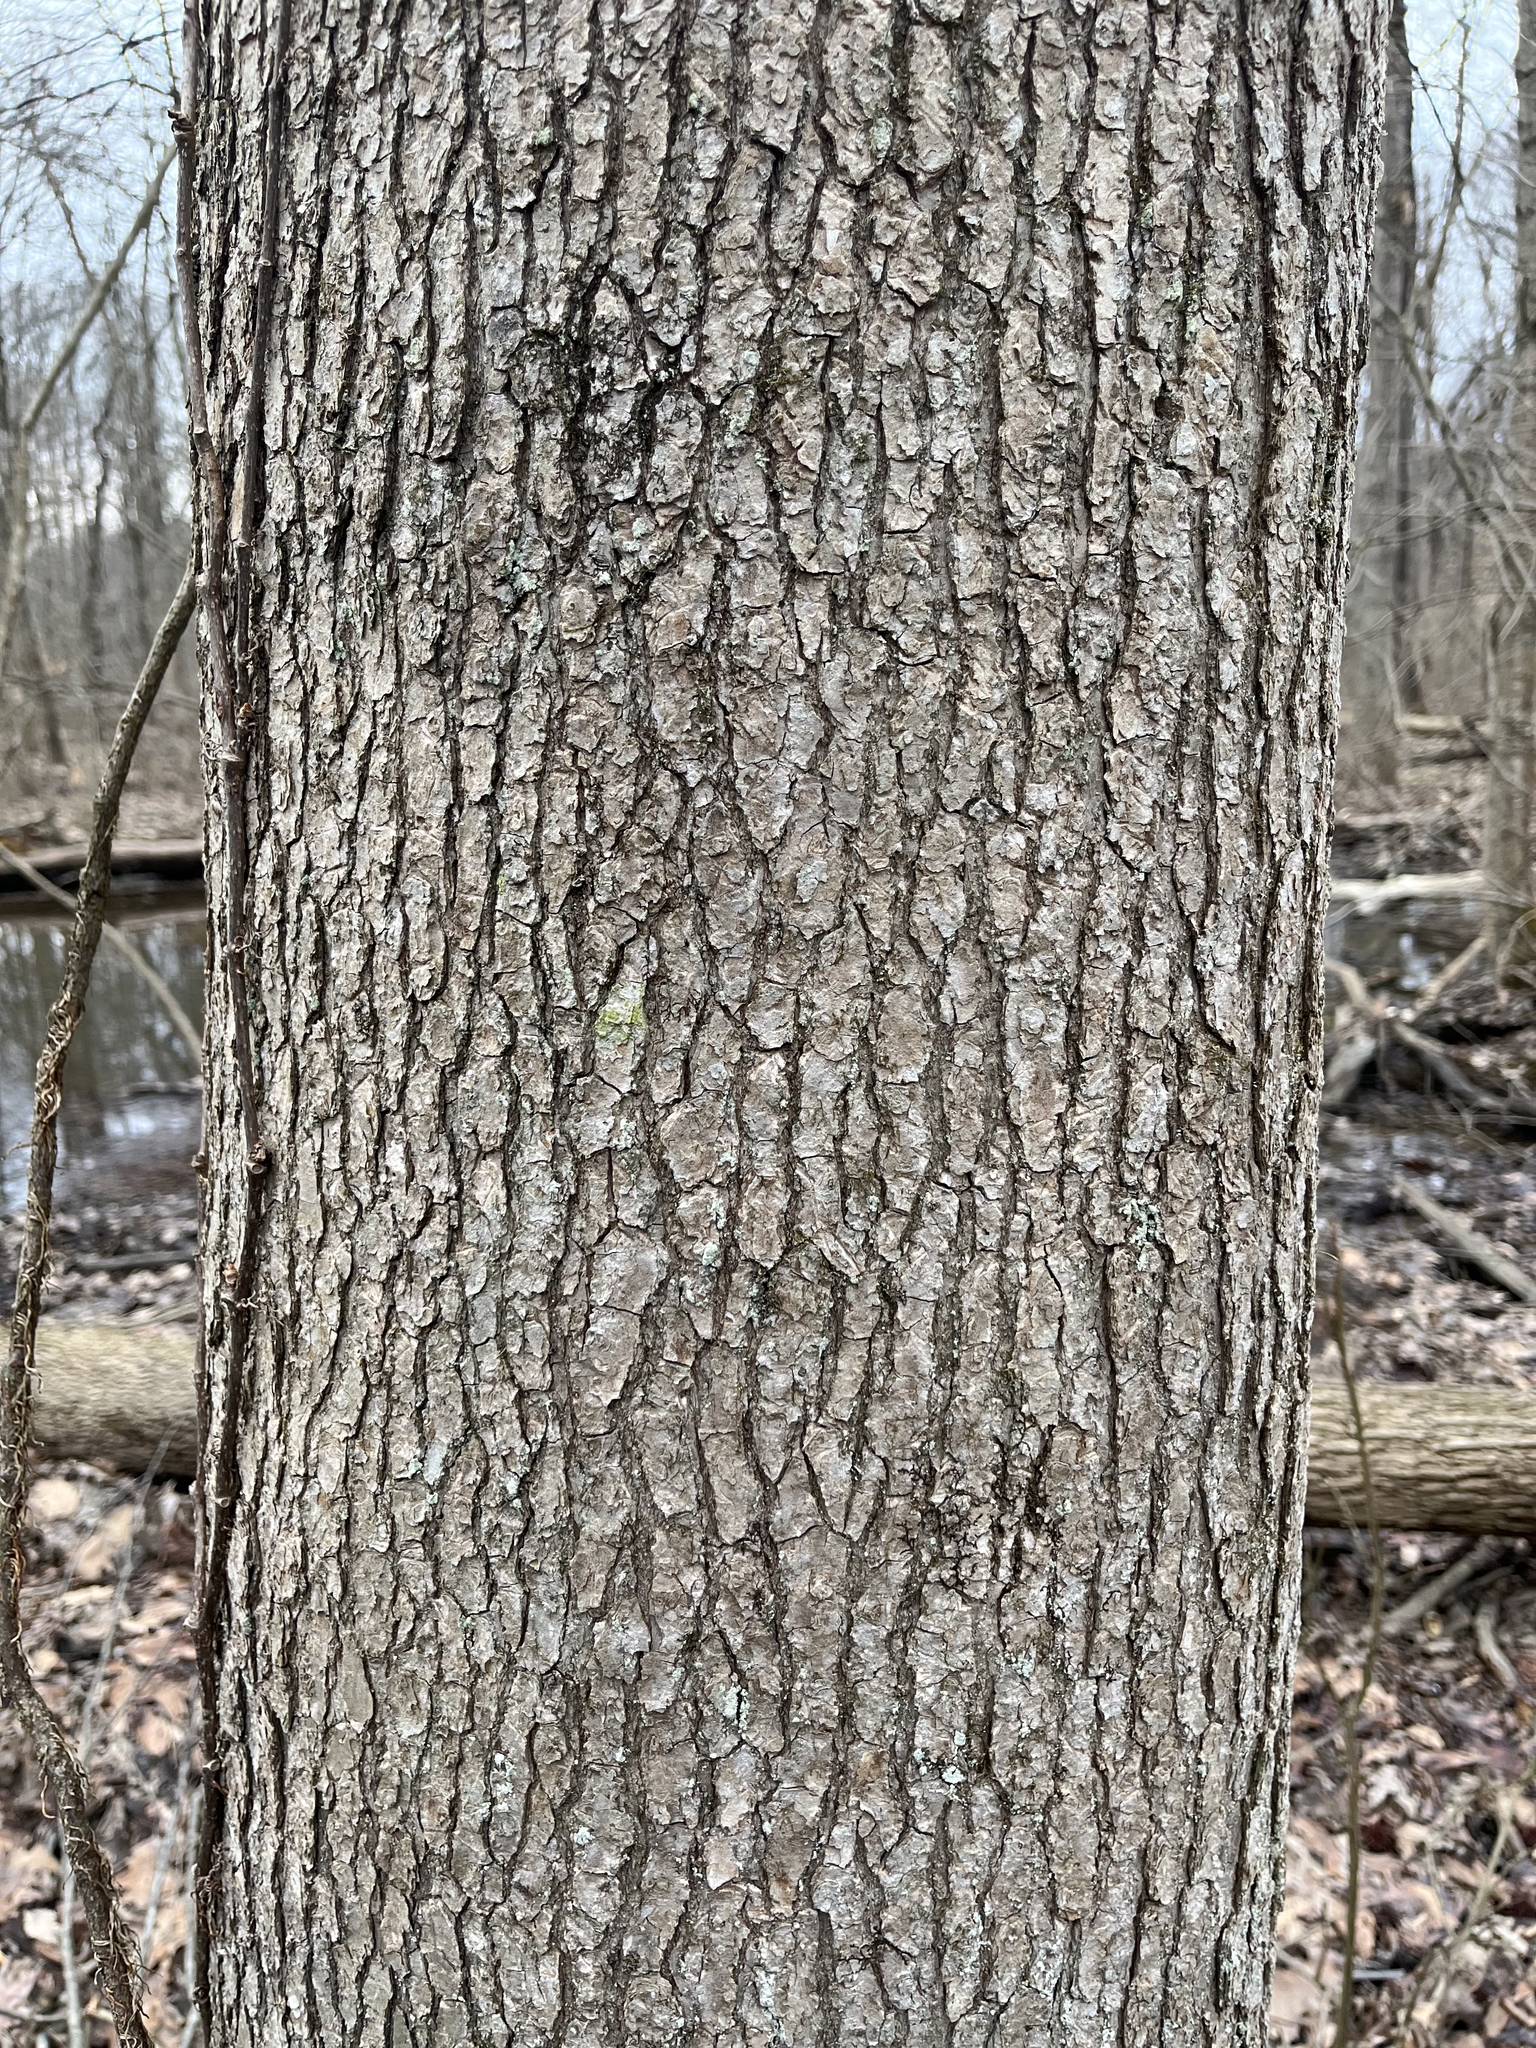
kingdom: Plantae
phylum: Tracheophyta
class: Magnoliopsida
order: Saxifragales
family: Altingiaceae
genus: Liquidambar
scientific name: Liquidambar styraciflua
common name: Sweet gum
